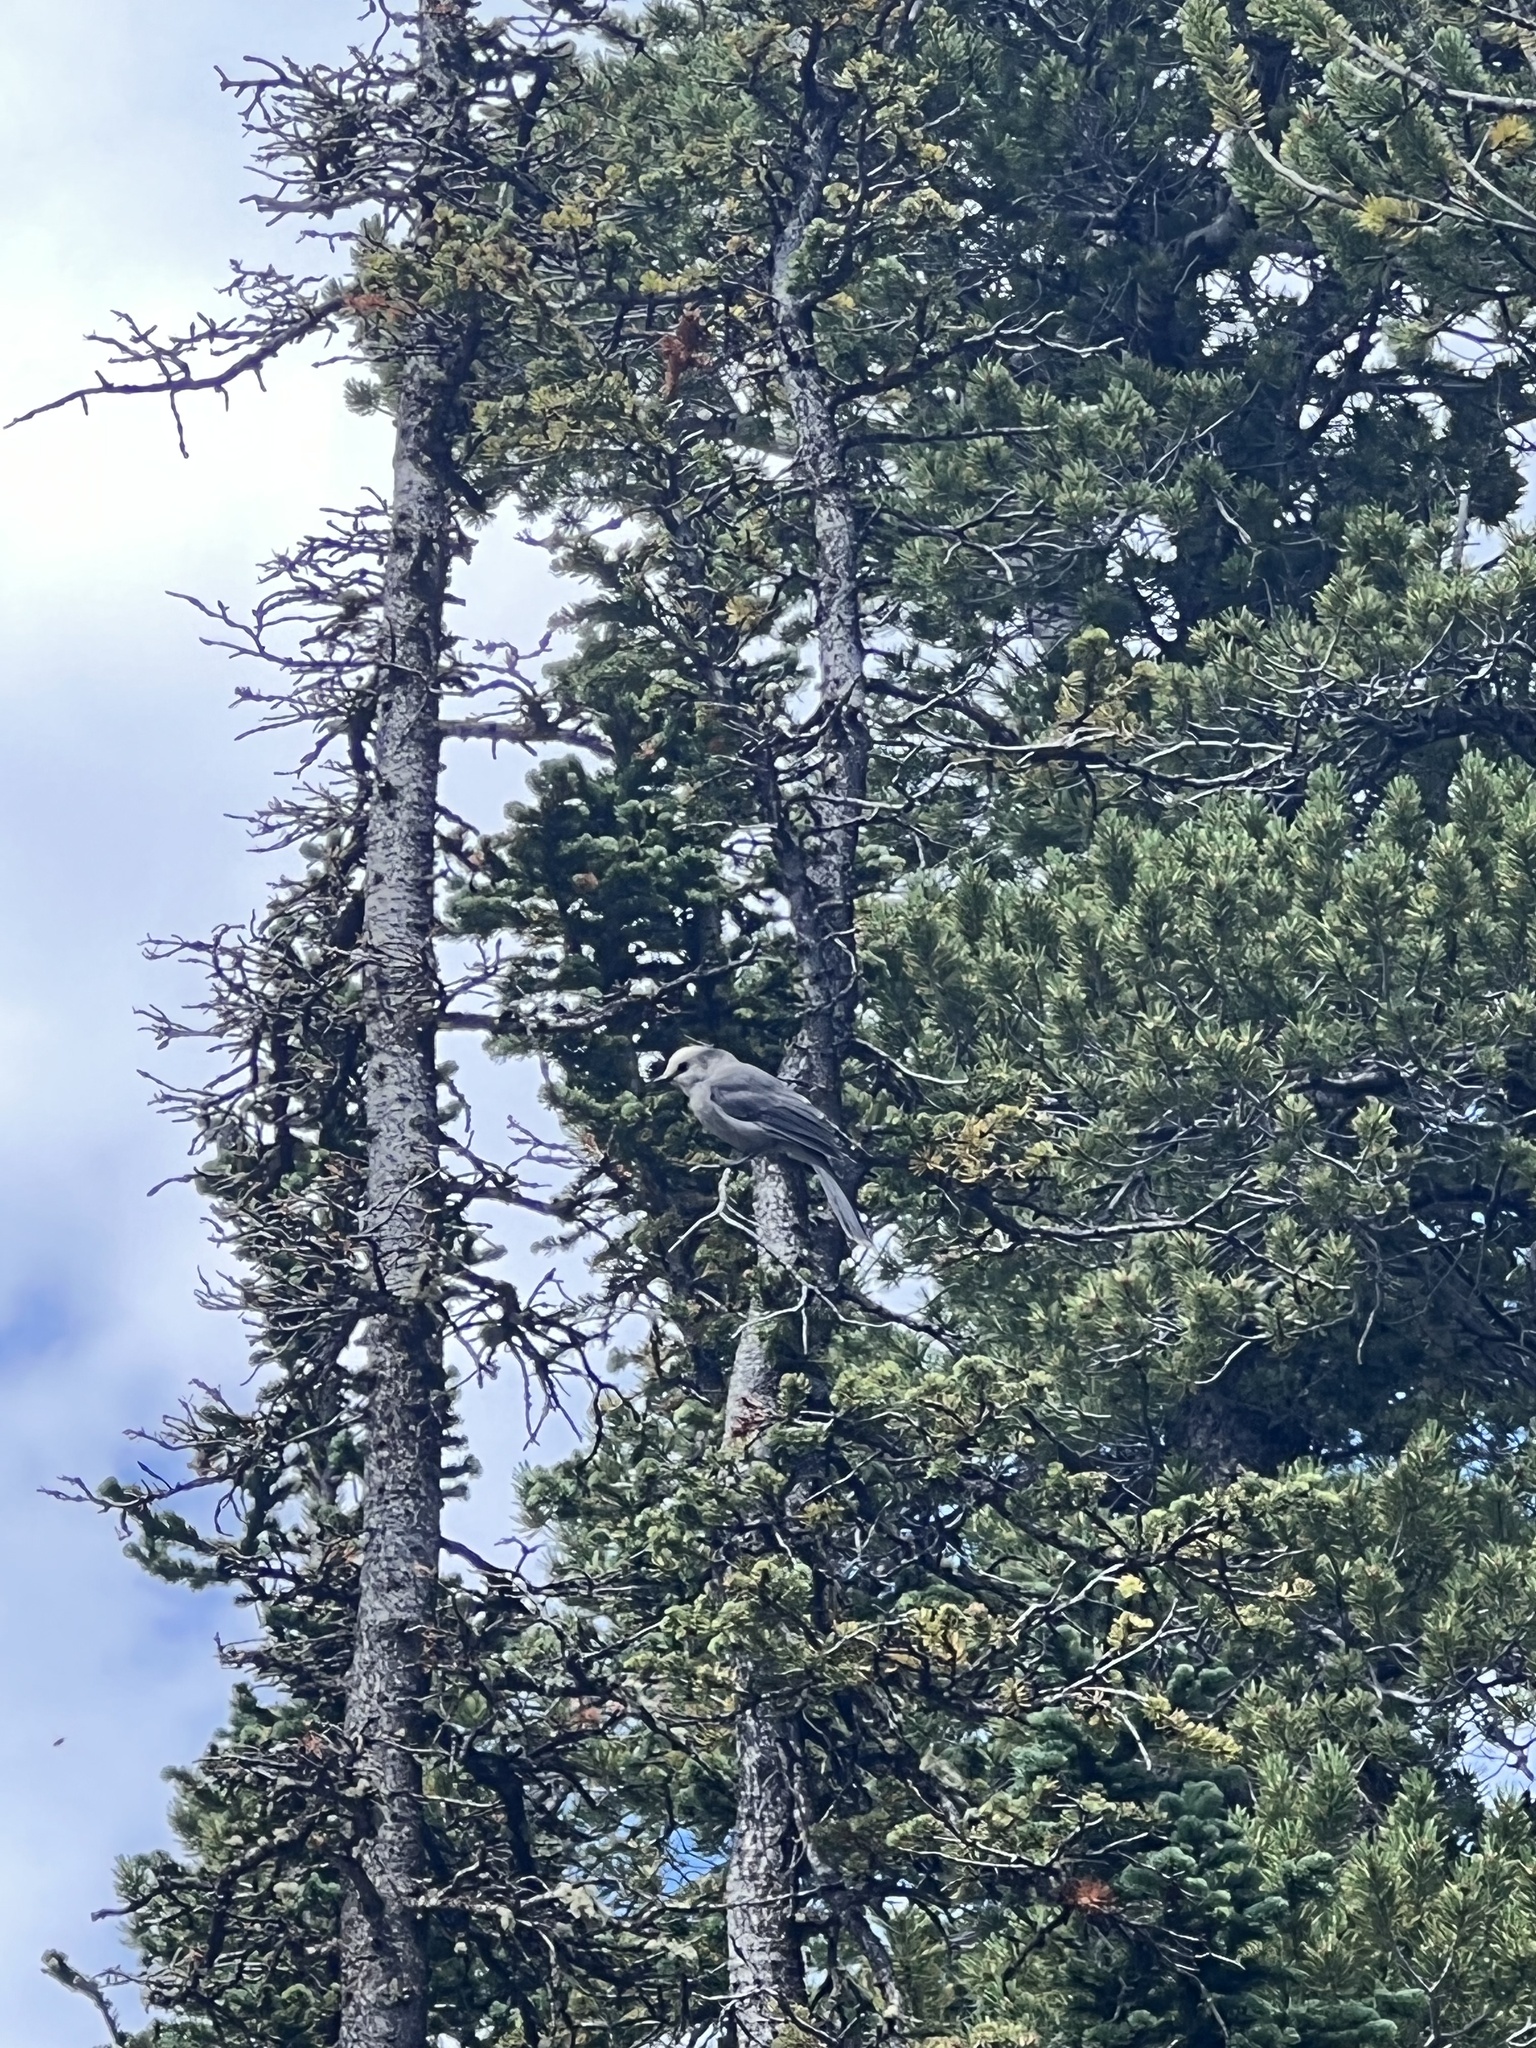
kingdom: Animalia
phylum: Chordata
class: Aves
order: Passeriformes
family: Corvidae
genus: Perisoreus
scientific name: Perisoreus canadensis
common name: Gray jay
